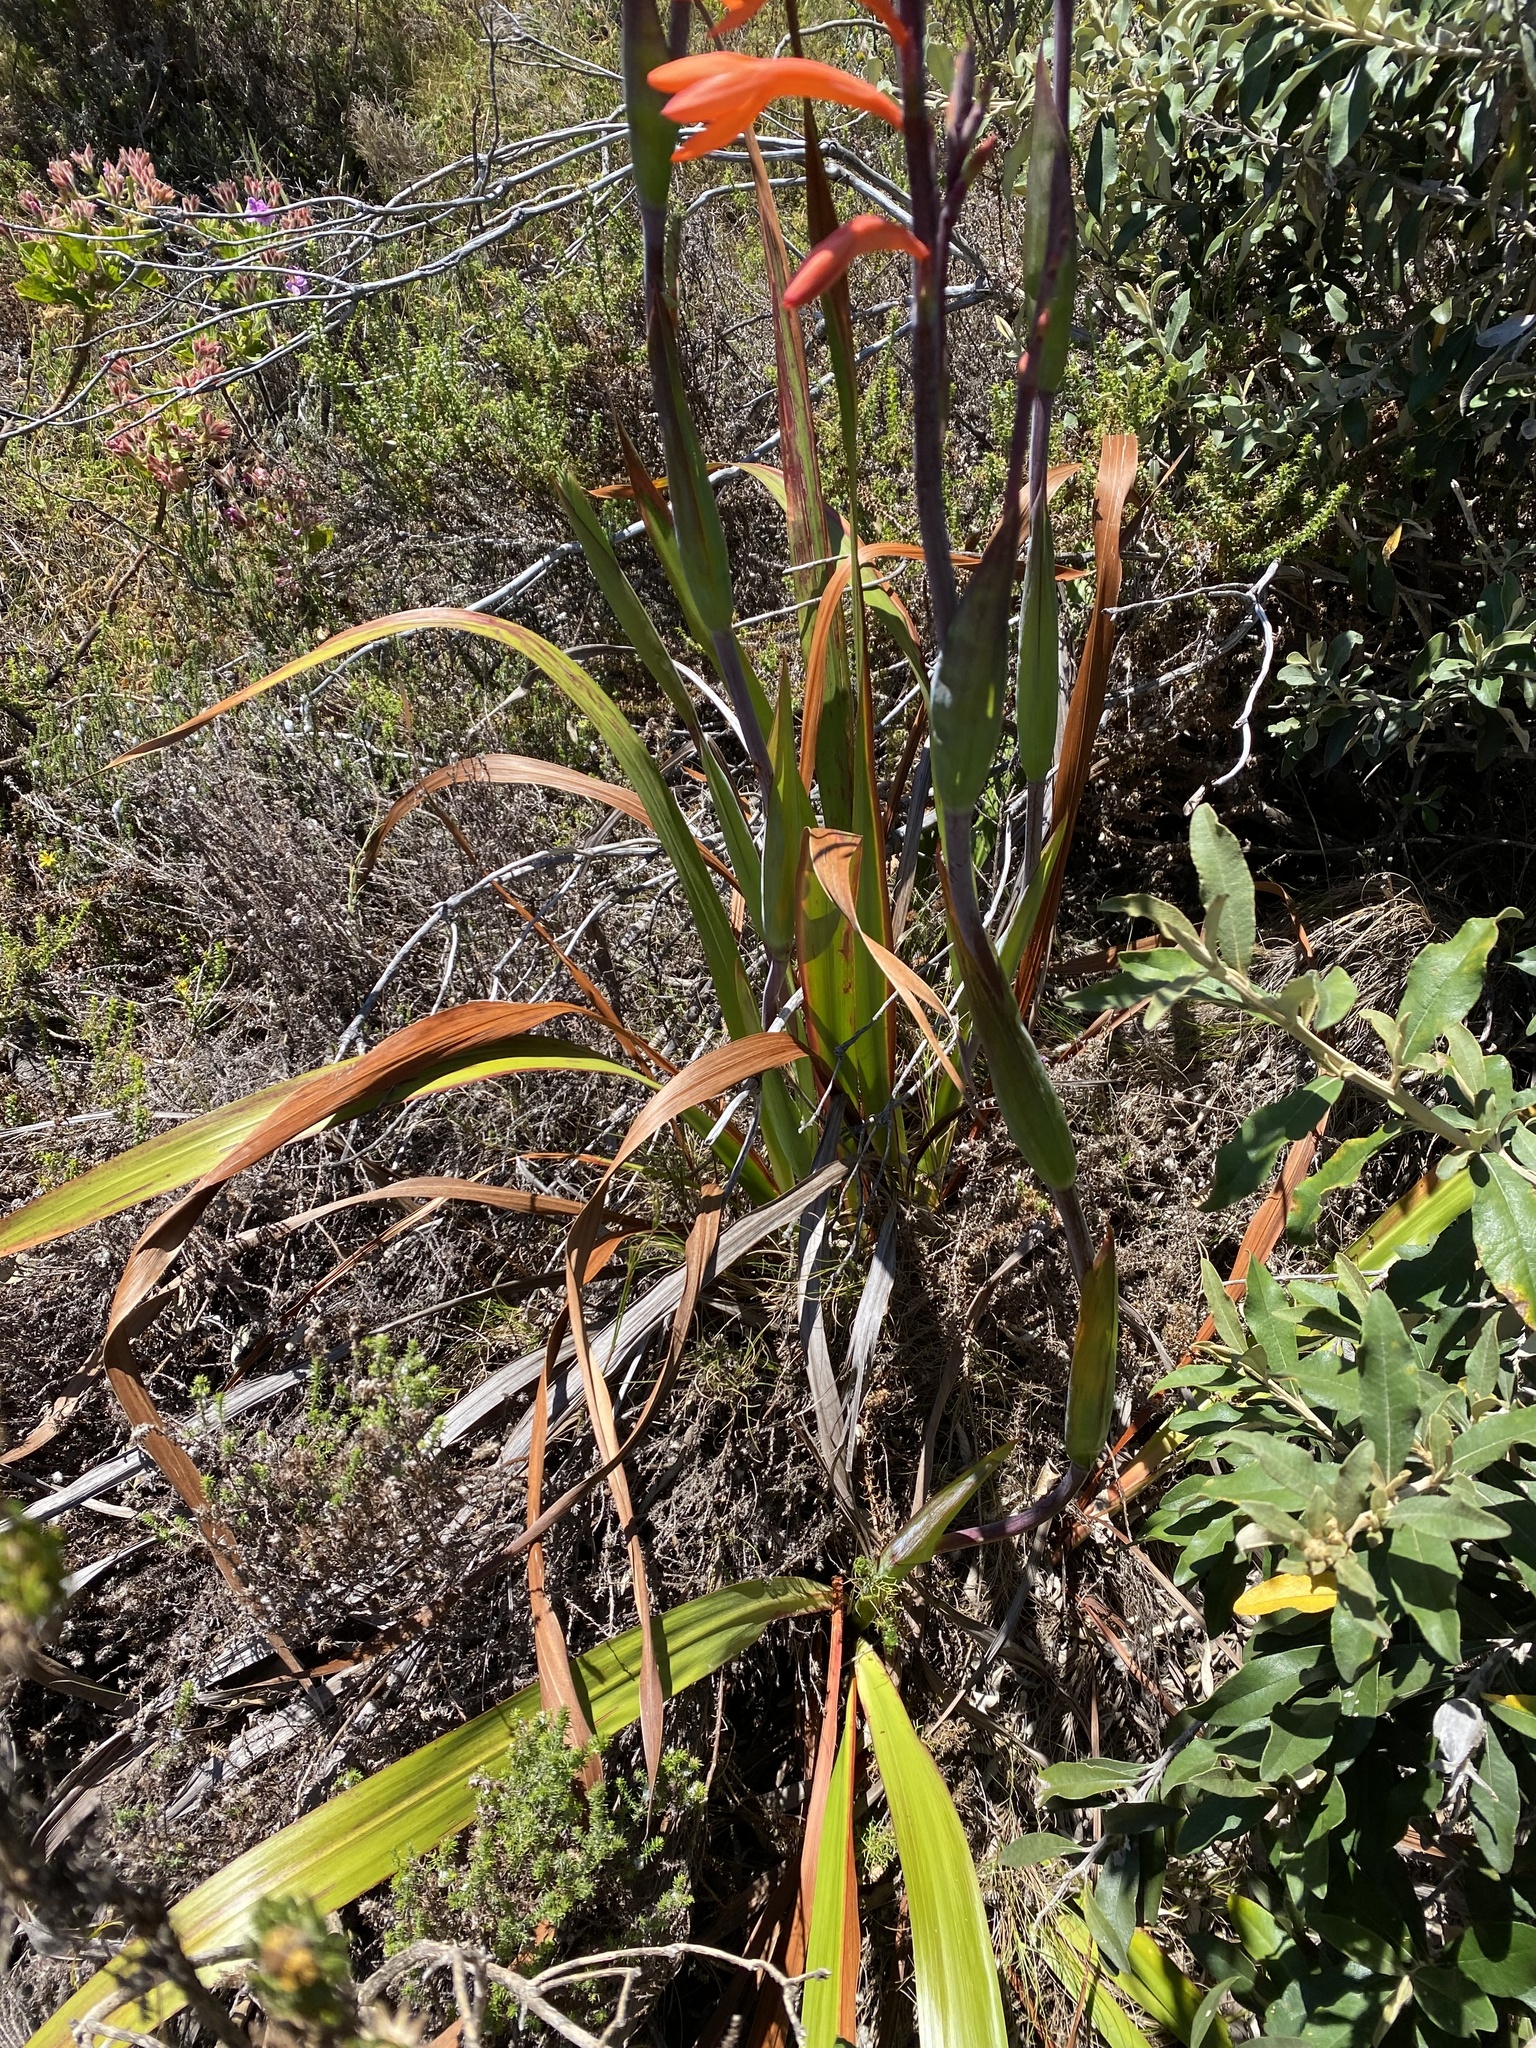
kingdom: Plantae
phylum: Tracheophyta
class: Liliopsida
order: Asparagales
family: Iridaceae
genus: Watsonia
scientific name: Watsonia tabularis
